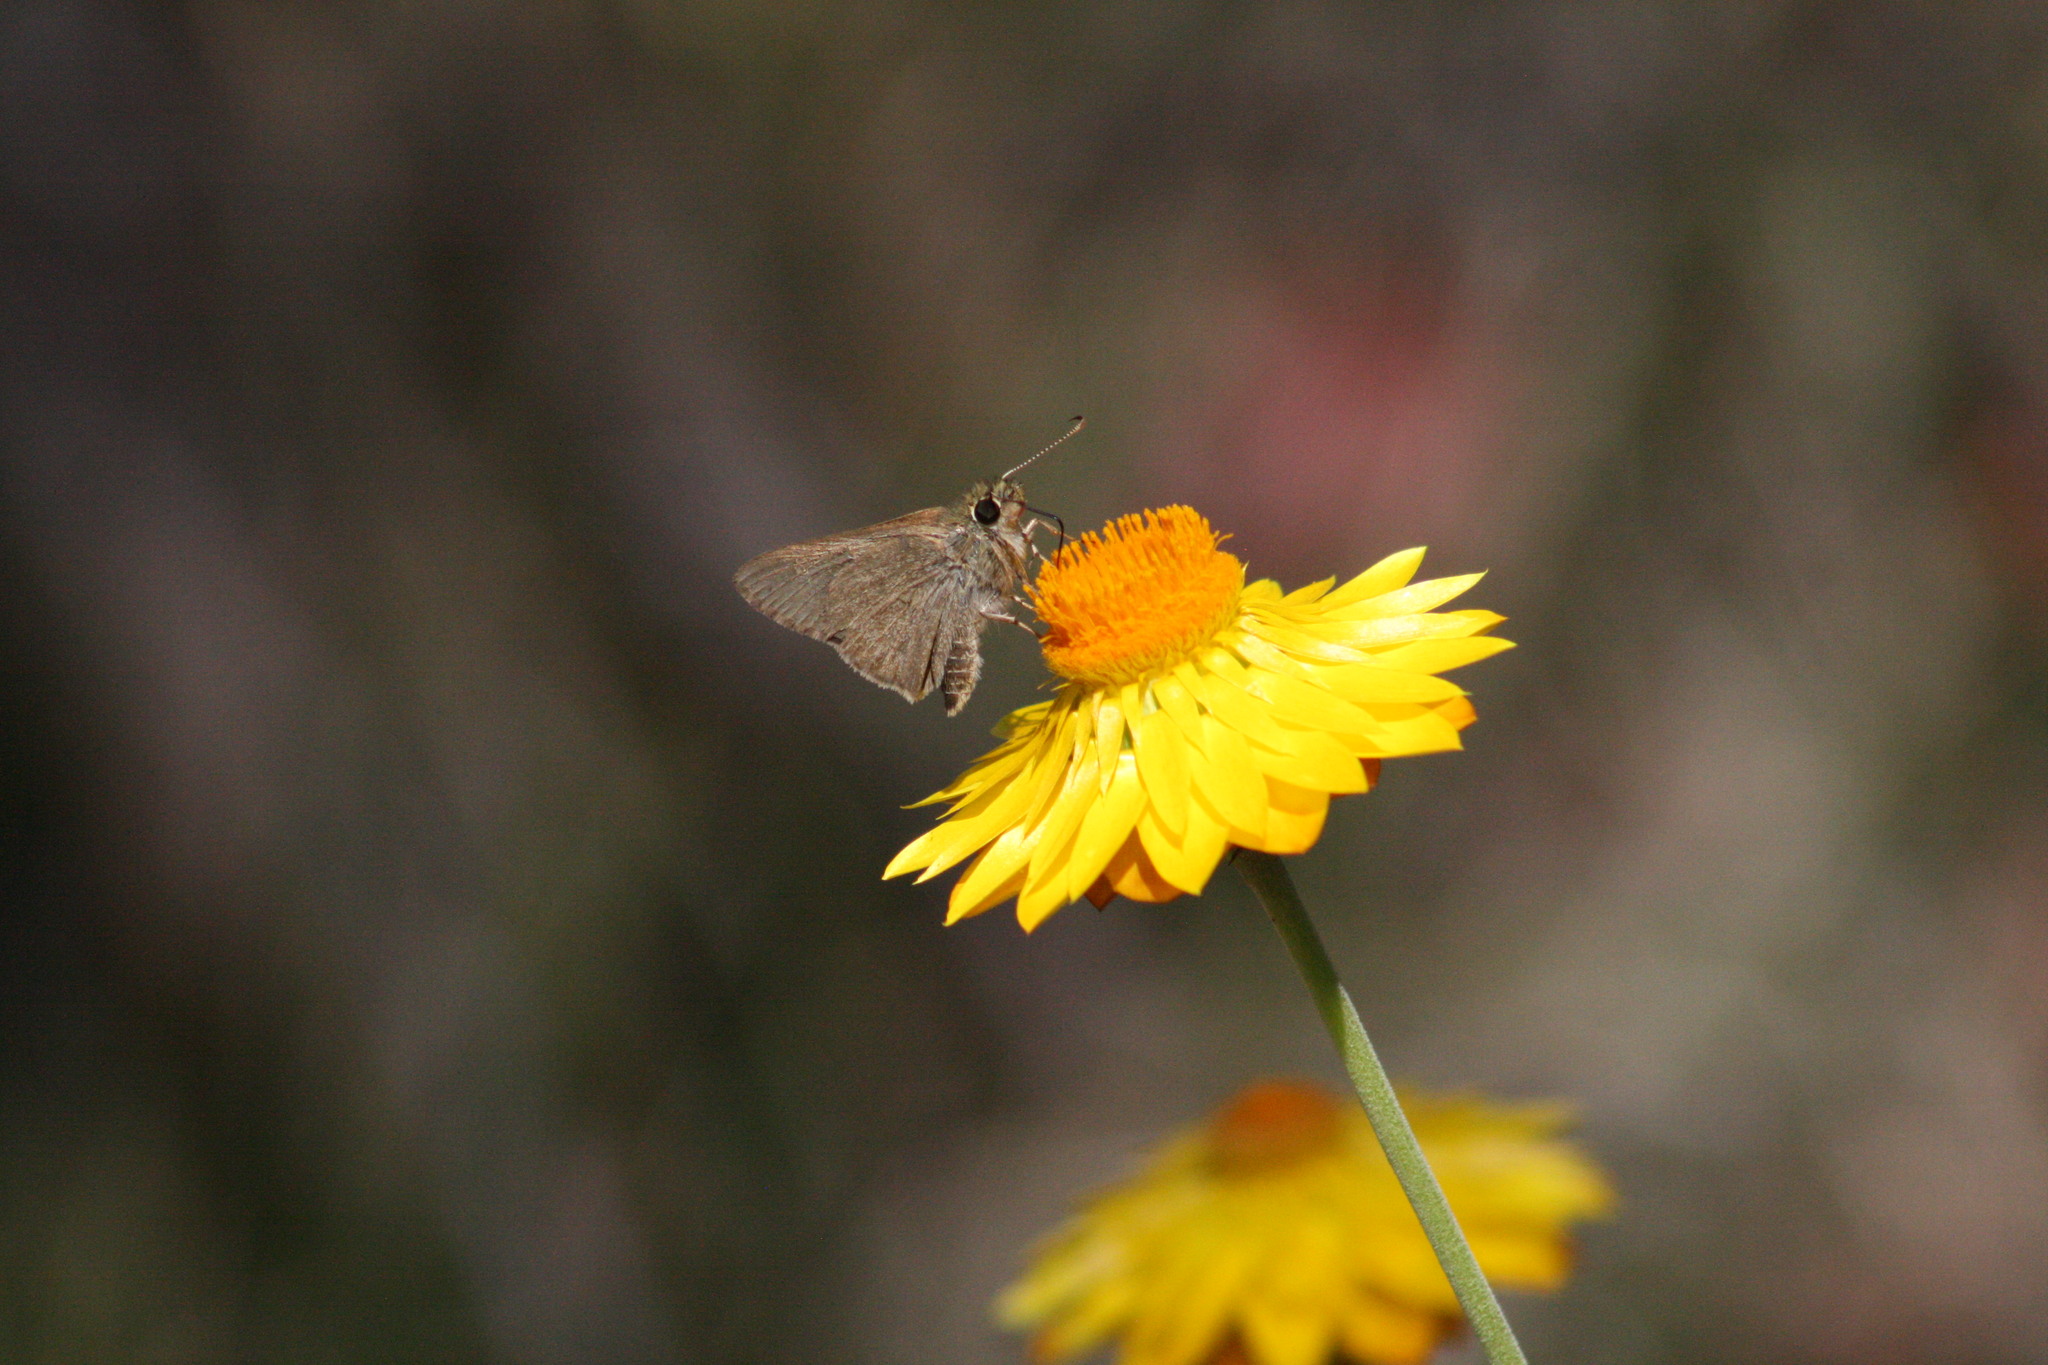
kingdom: Animalia
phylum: Arthropoda
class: Insecta
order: Lepidoptera
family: Hesperiidae
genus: Toxidia
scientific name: Toxidia
